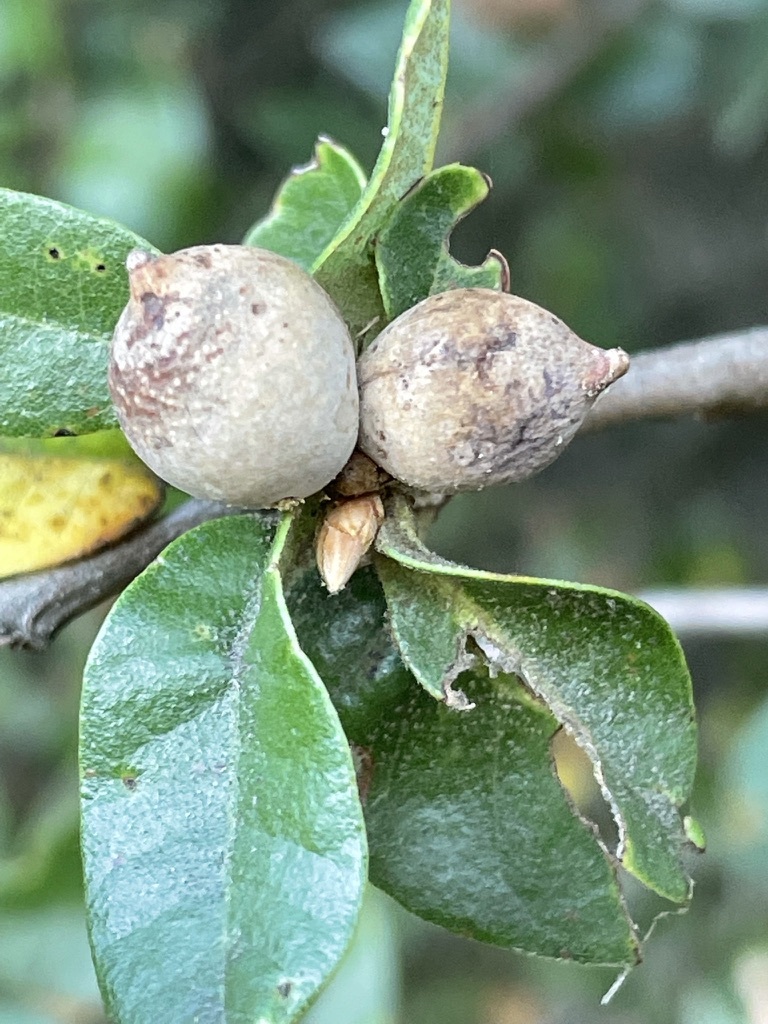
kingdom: Animalia
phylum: Arthropoda
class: Insecta
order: Hymenoptera
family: Cynipidae
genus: Heteroecus
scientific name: Heteroecus
